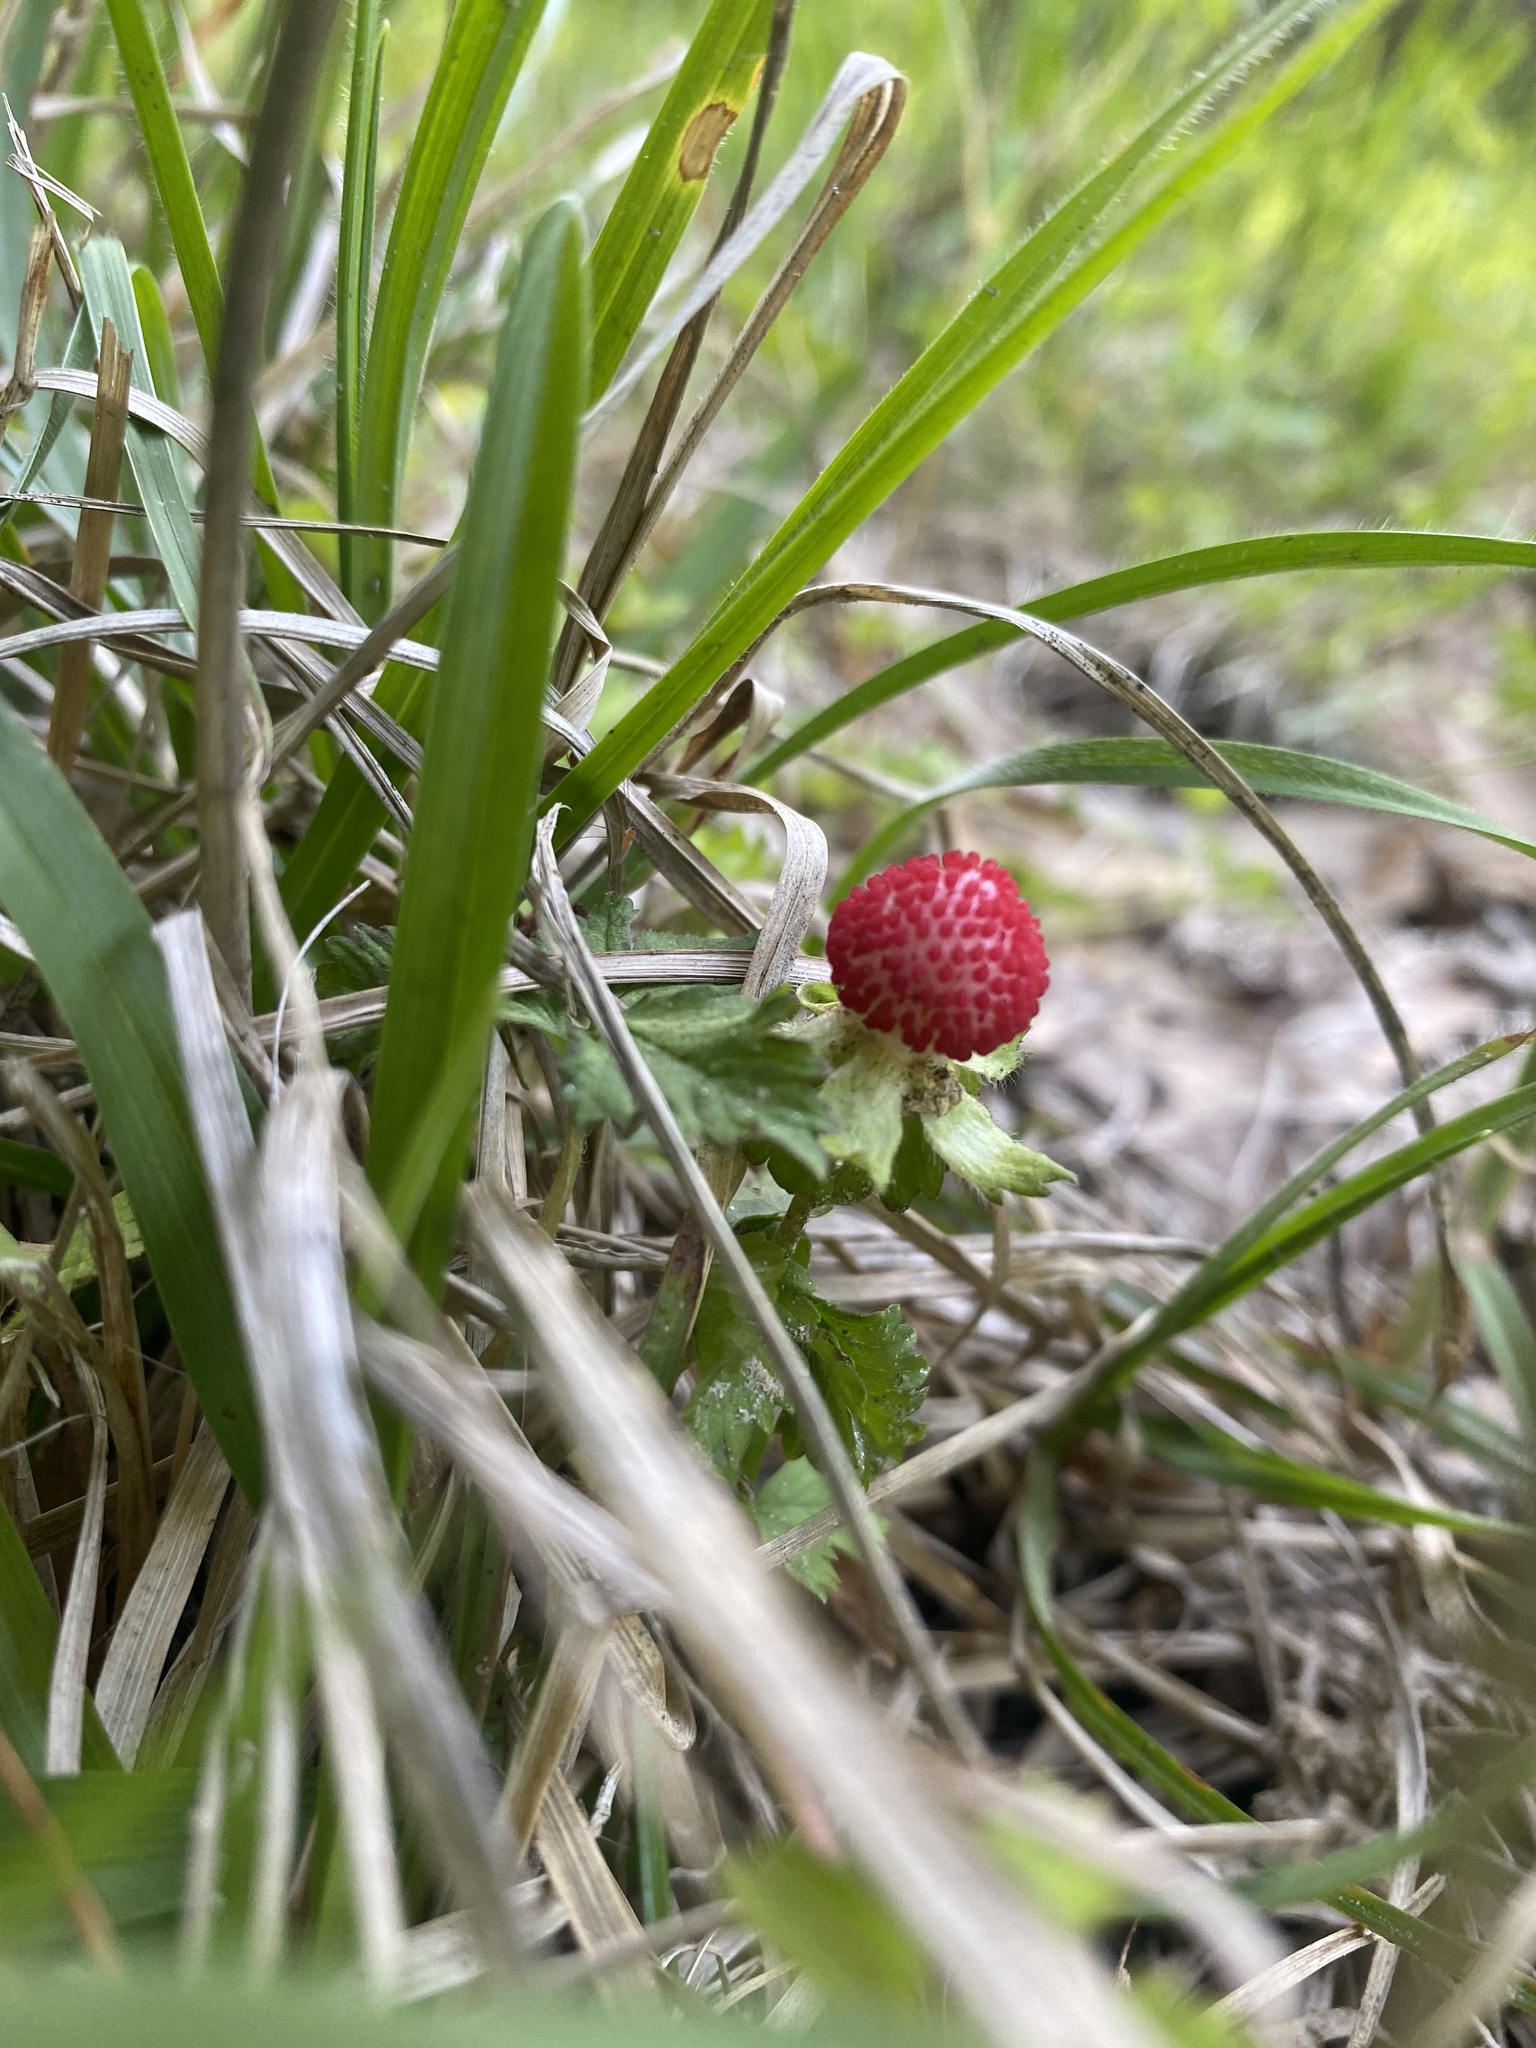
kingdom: Plantae
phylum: Tracheophyta
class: Magnoliopsida
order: Rosales
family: Rosaceae
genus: Potentilla
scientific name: Potentilla indica
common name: Yellow-flowered strawberry
